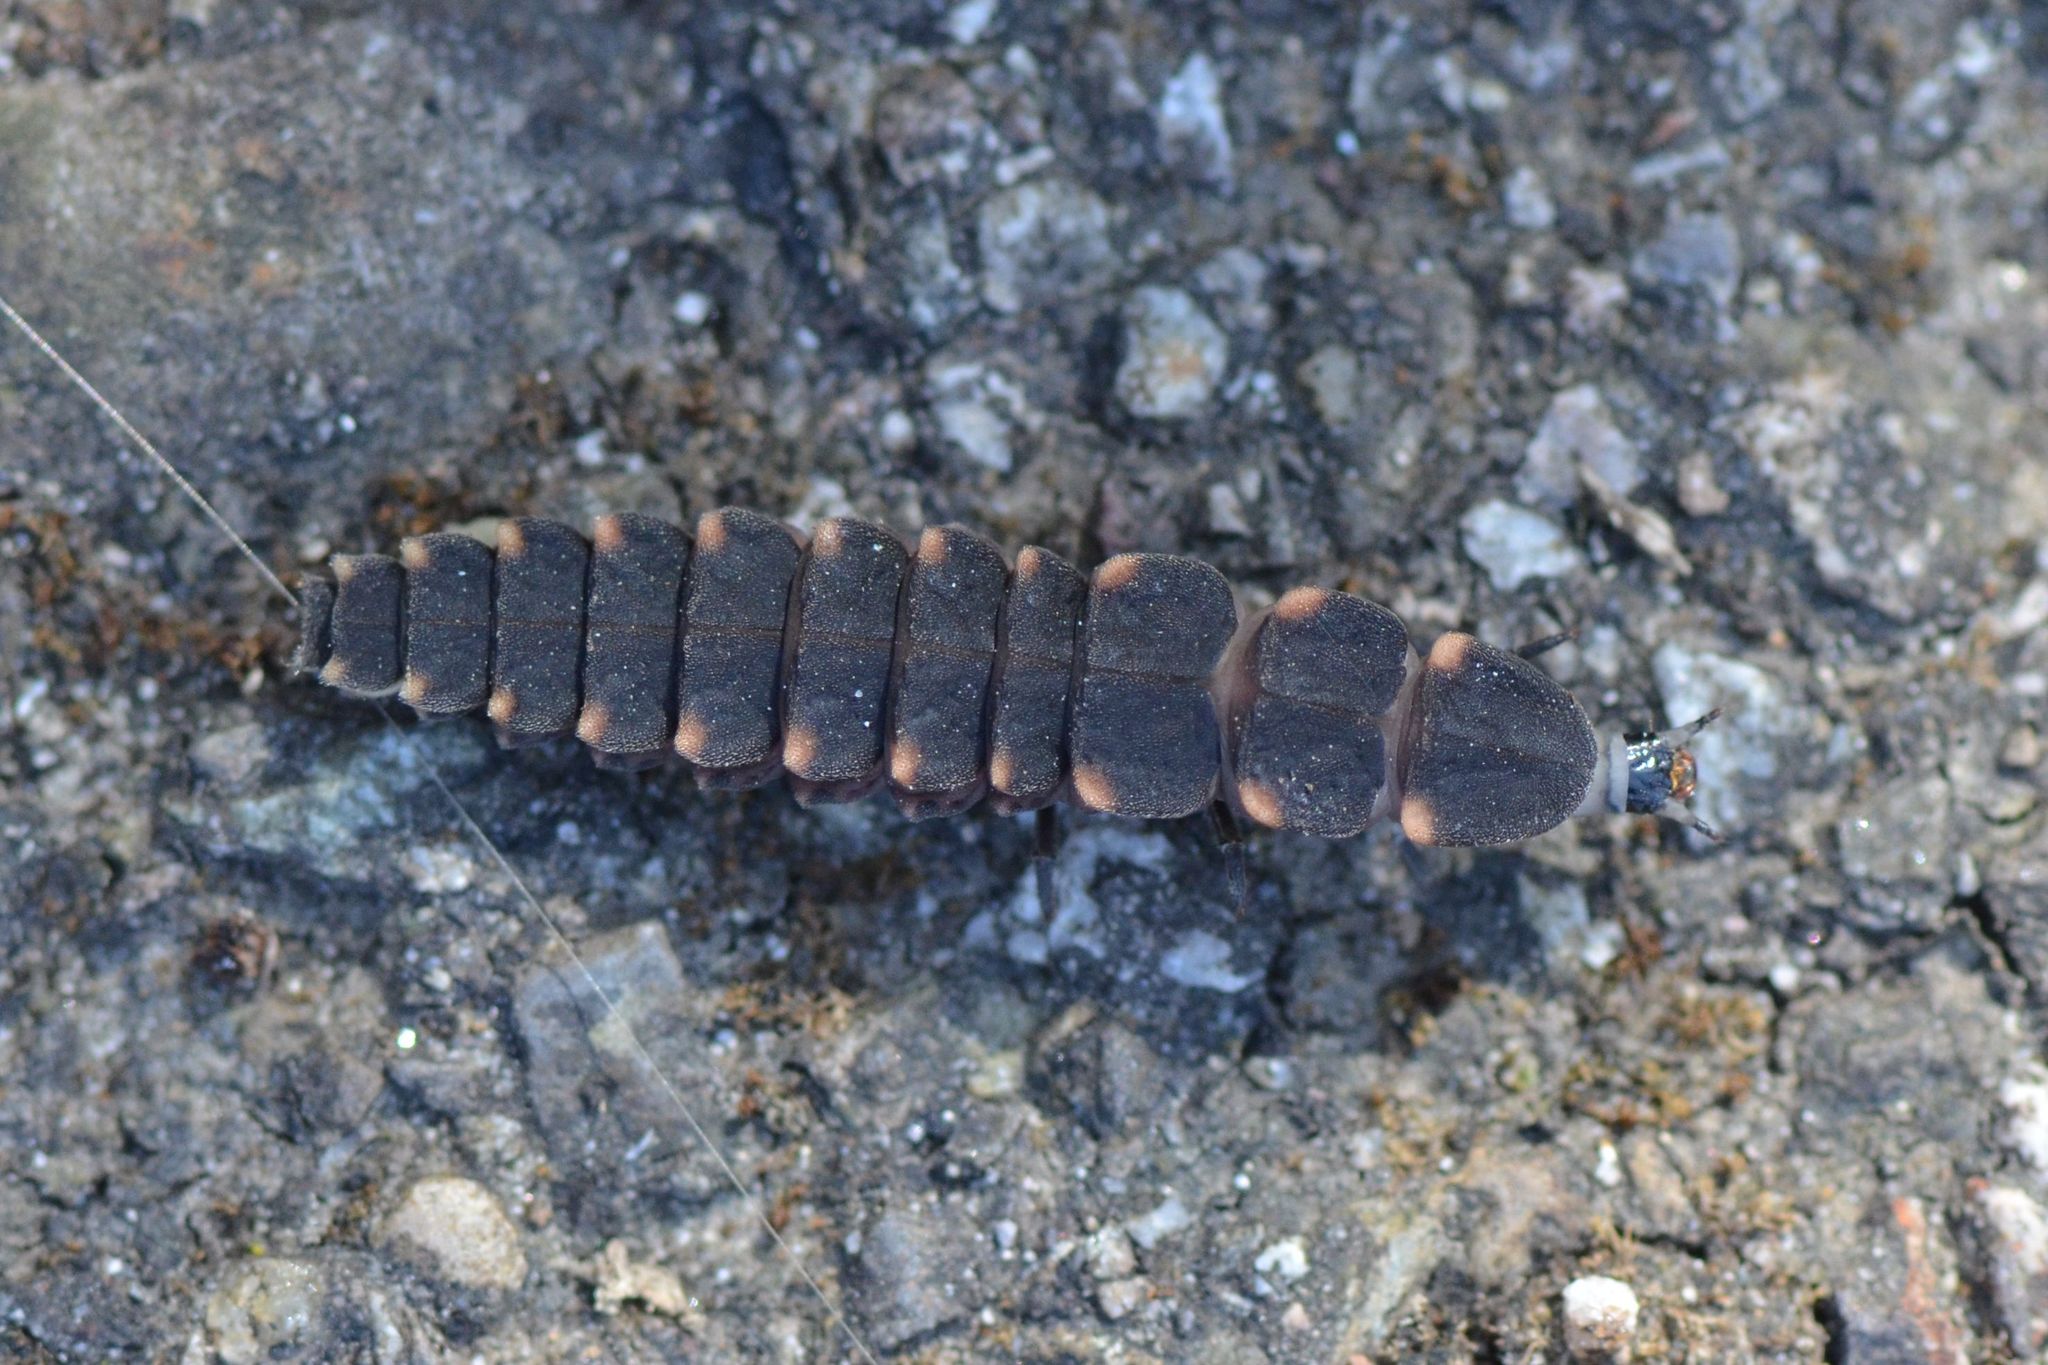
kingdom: Animalia
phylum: Arthropoda
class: Insecta
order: Coleoptera
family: Lampyridae
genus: Lampyris
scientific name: Lampyris noctiluca
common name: Glow-worm
